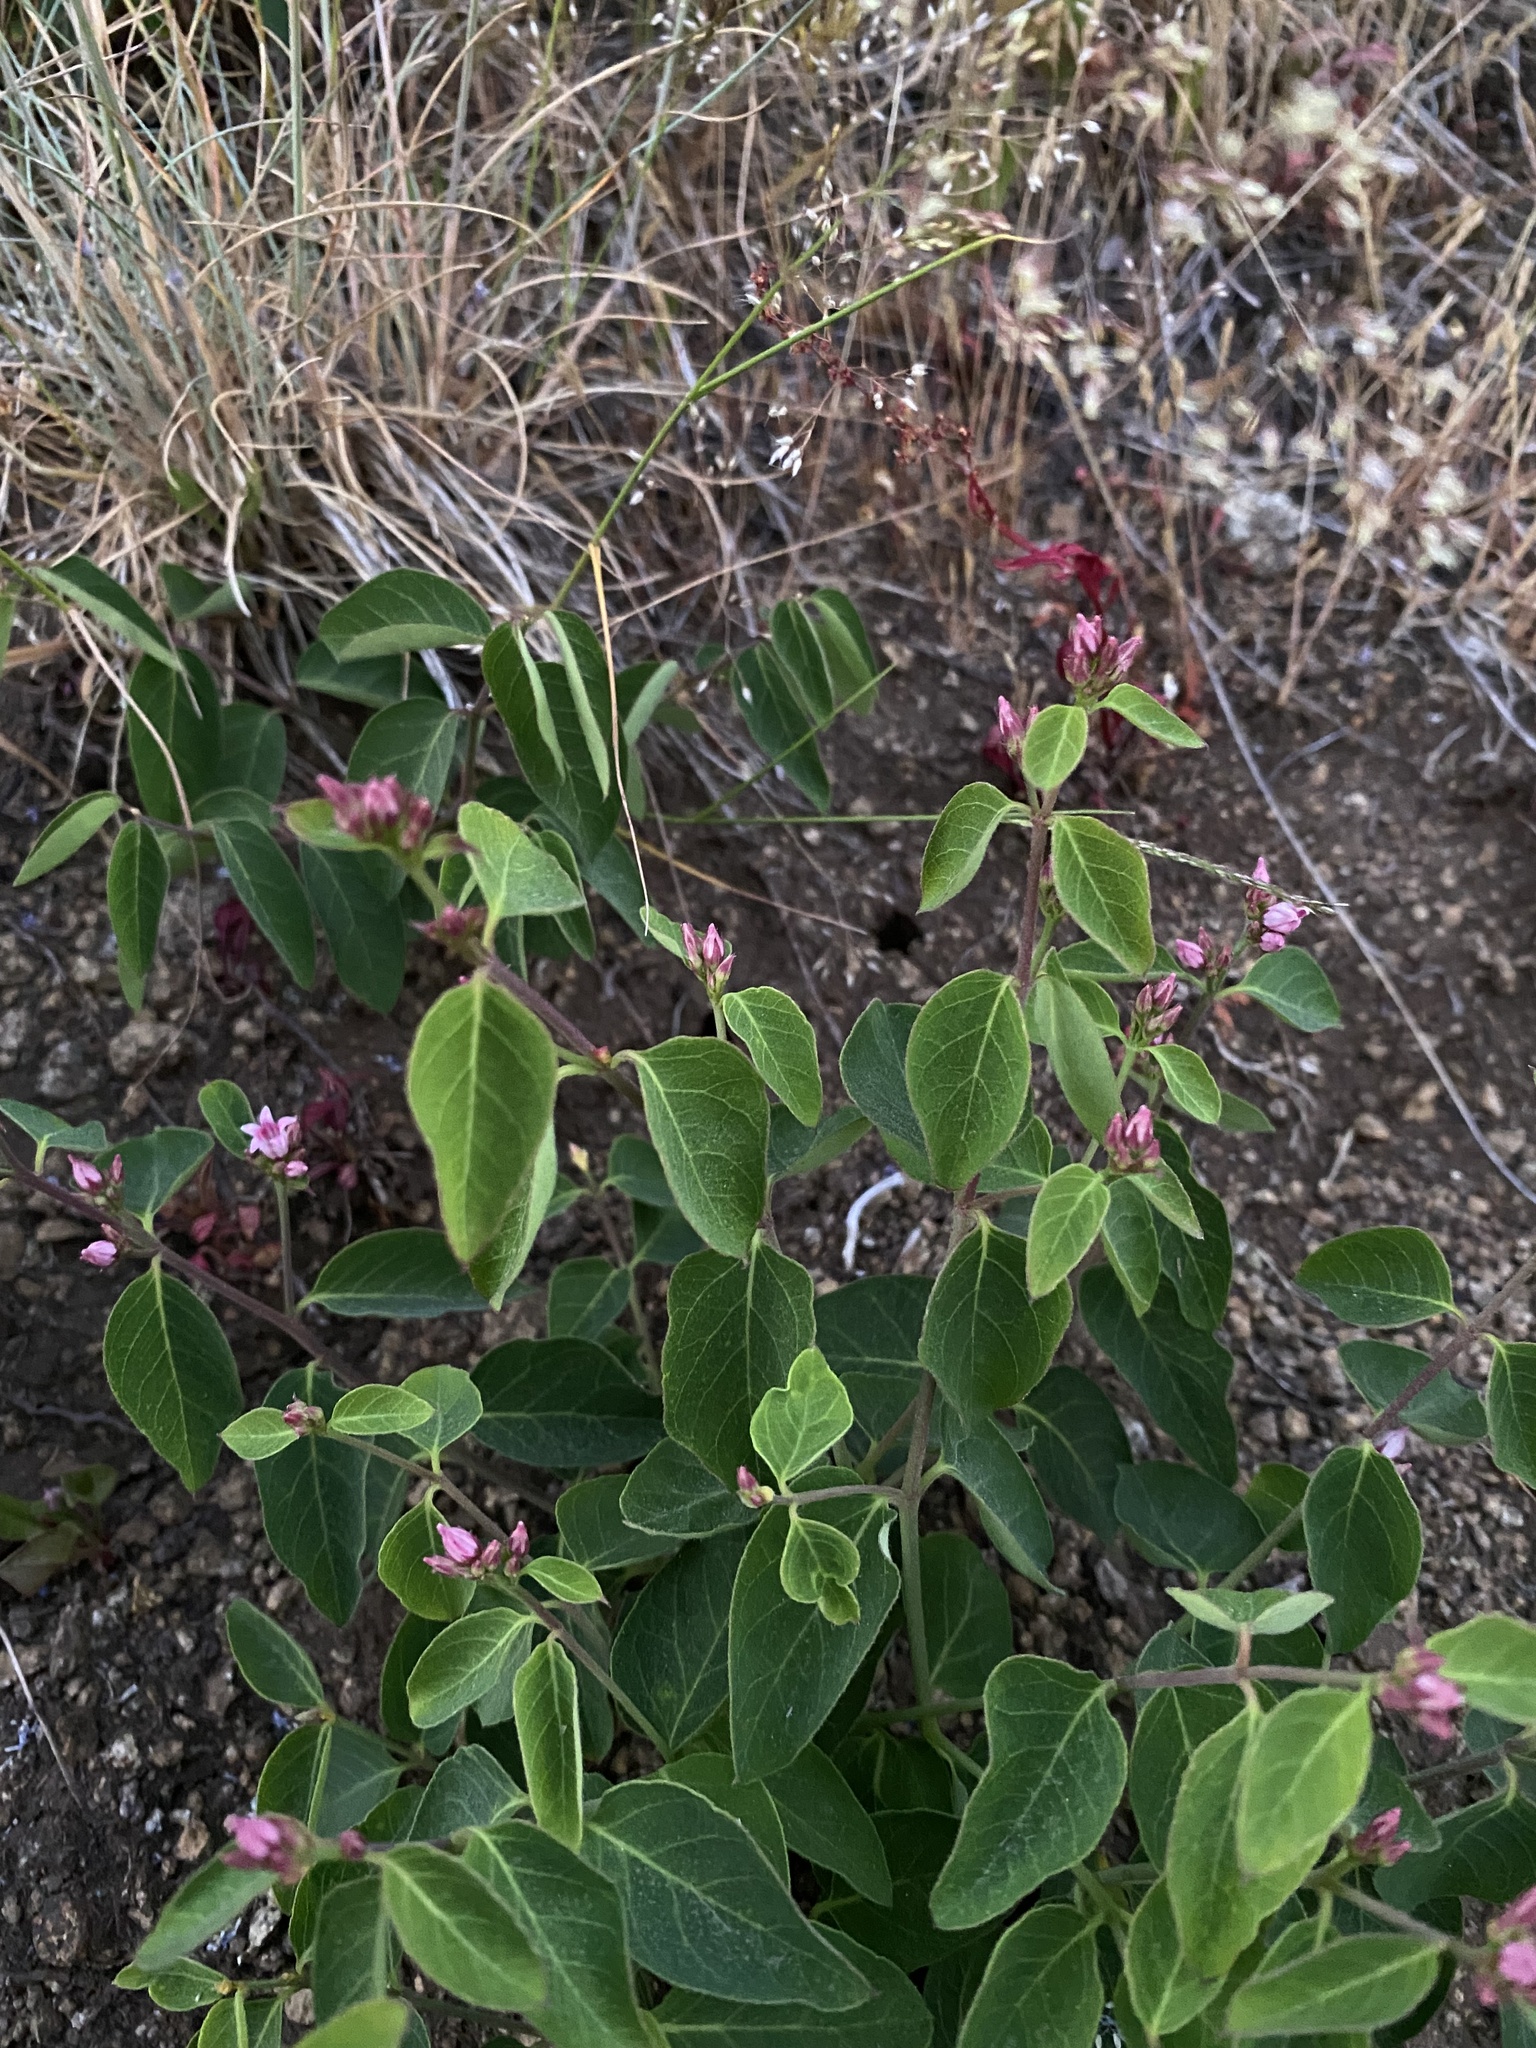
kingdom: Plantae
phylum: Tracheophyta
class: Magnoliopsida
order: Gentianales
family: Apocynaceae
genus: Apocynum
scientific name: Apocynum androsaemifolium
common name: Spreading dogbane
